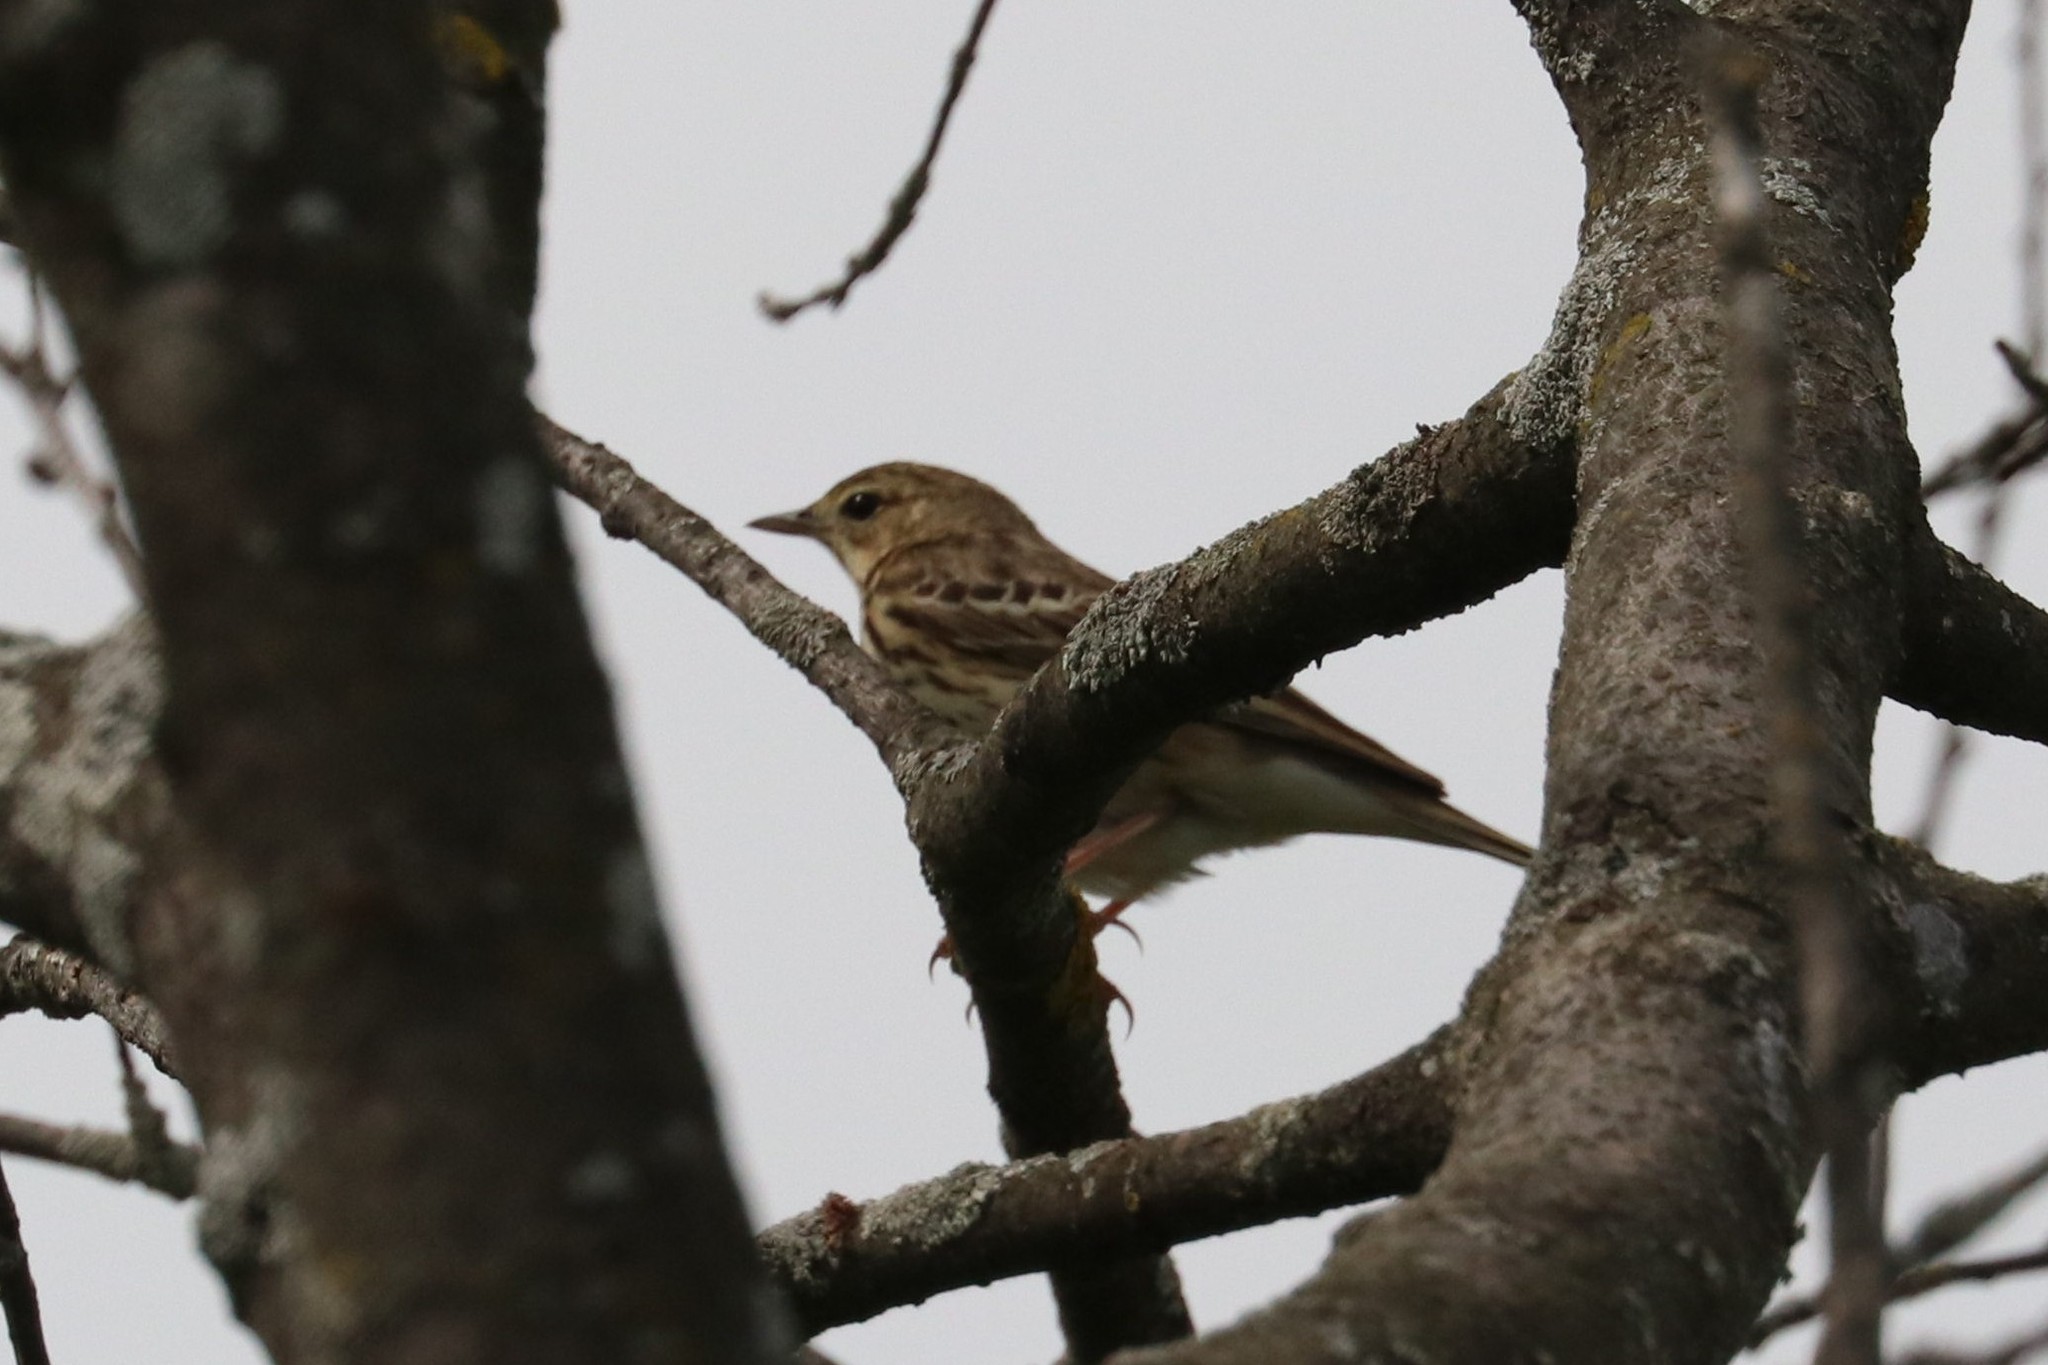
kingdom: Animalia
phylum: Chordata
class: Aves
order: Passeriformes
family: Motacillidae
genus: Anthus
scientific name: Anthus trivialis
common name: Tree pipit
